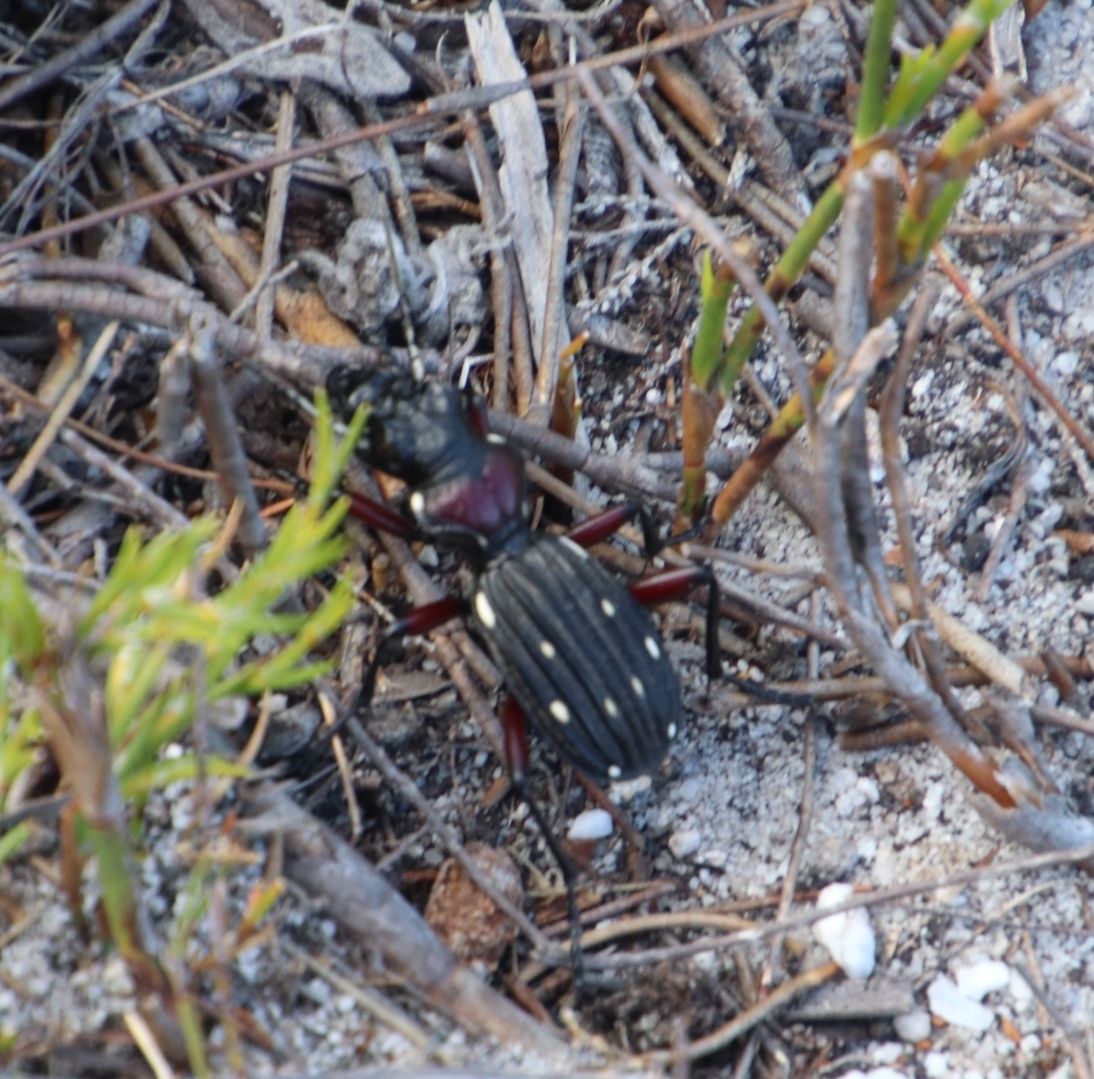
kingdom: Animalia
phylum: Arthropoda
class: Insecta
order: Coleoptera
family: Carabidae
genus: Anthia
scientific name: Anthia decemguttata
